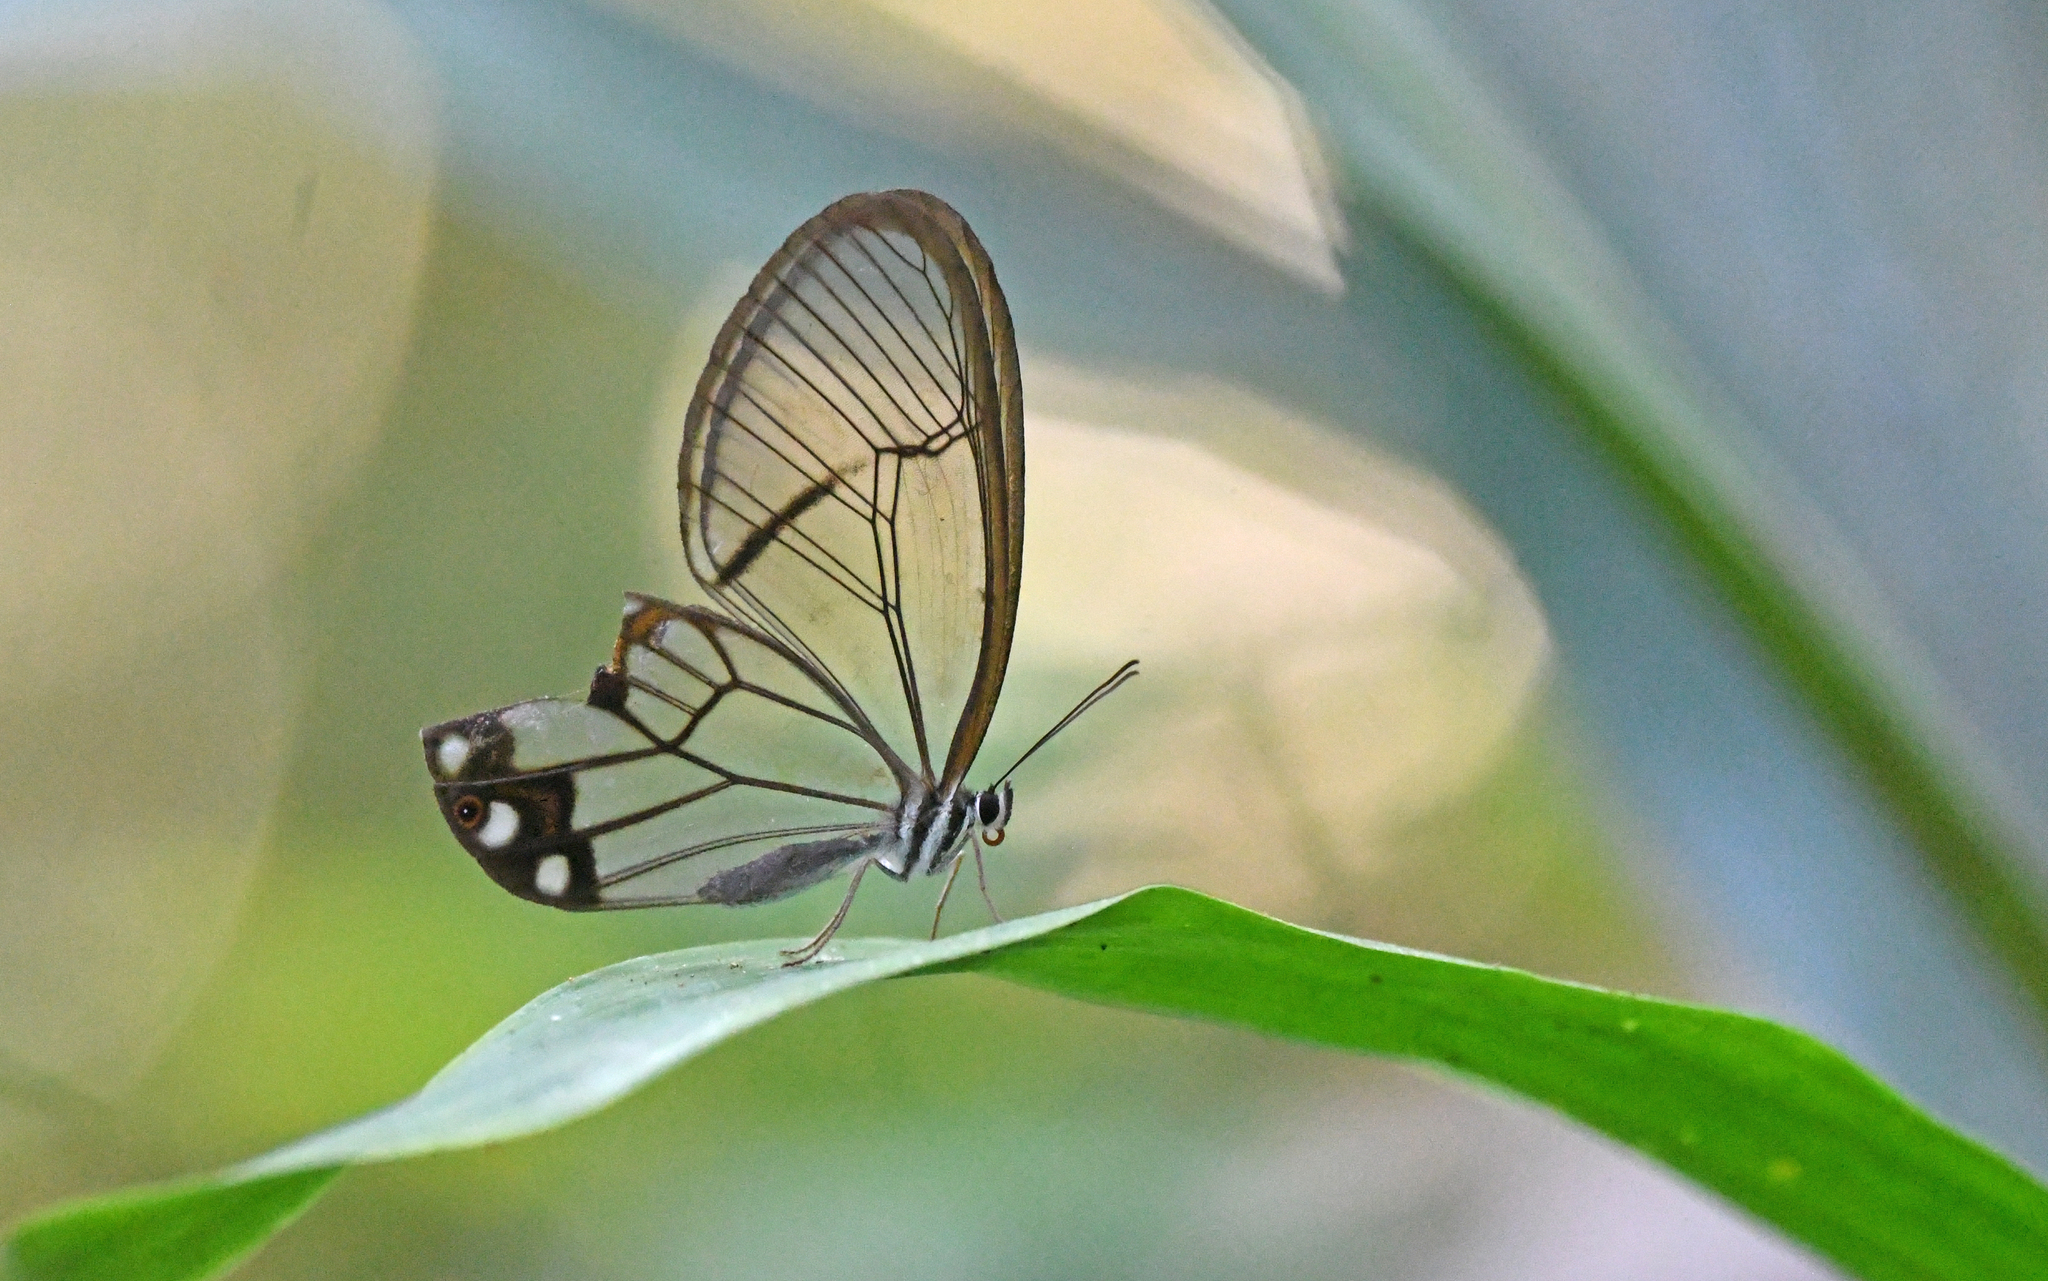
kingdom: Animalia
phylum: Arthropoda
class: Insecta
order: Lepidoptera
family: Nymphalidae
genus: Pseudohaetera
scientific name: Pseudohaetera hypaesia
